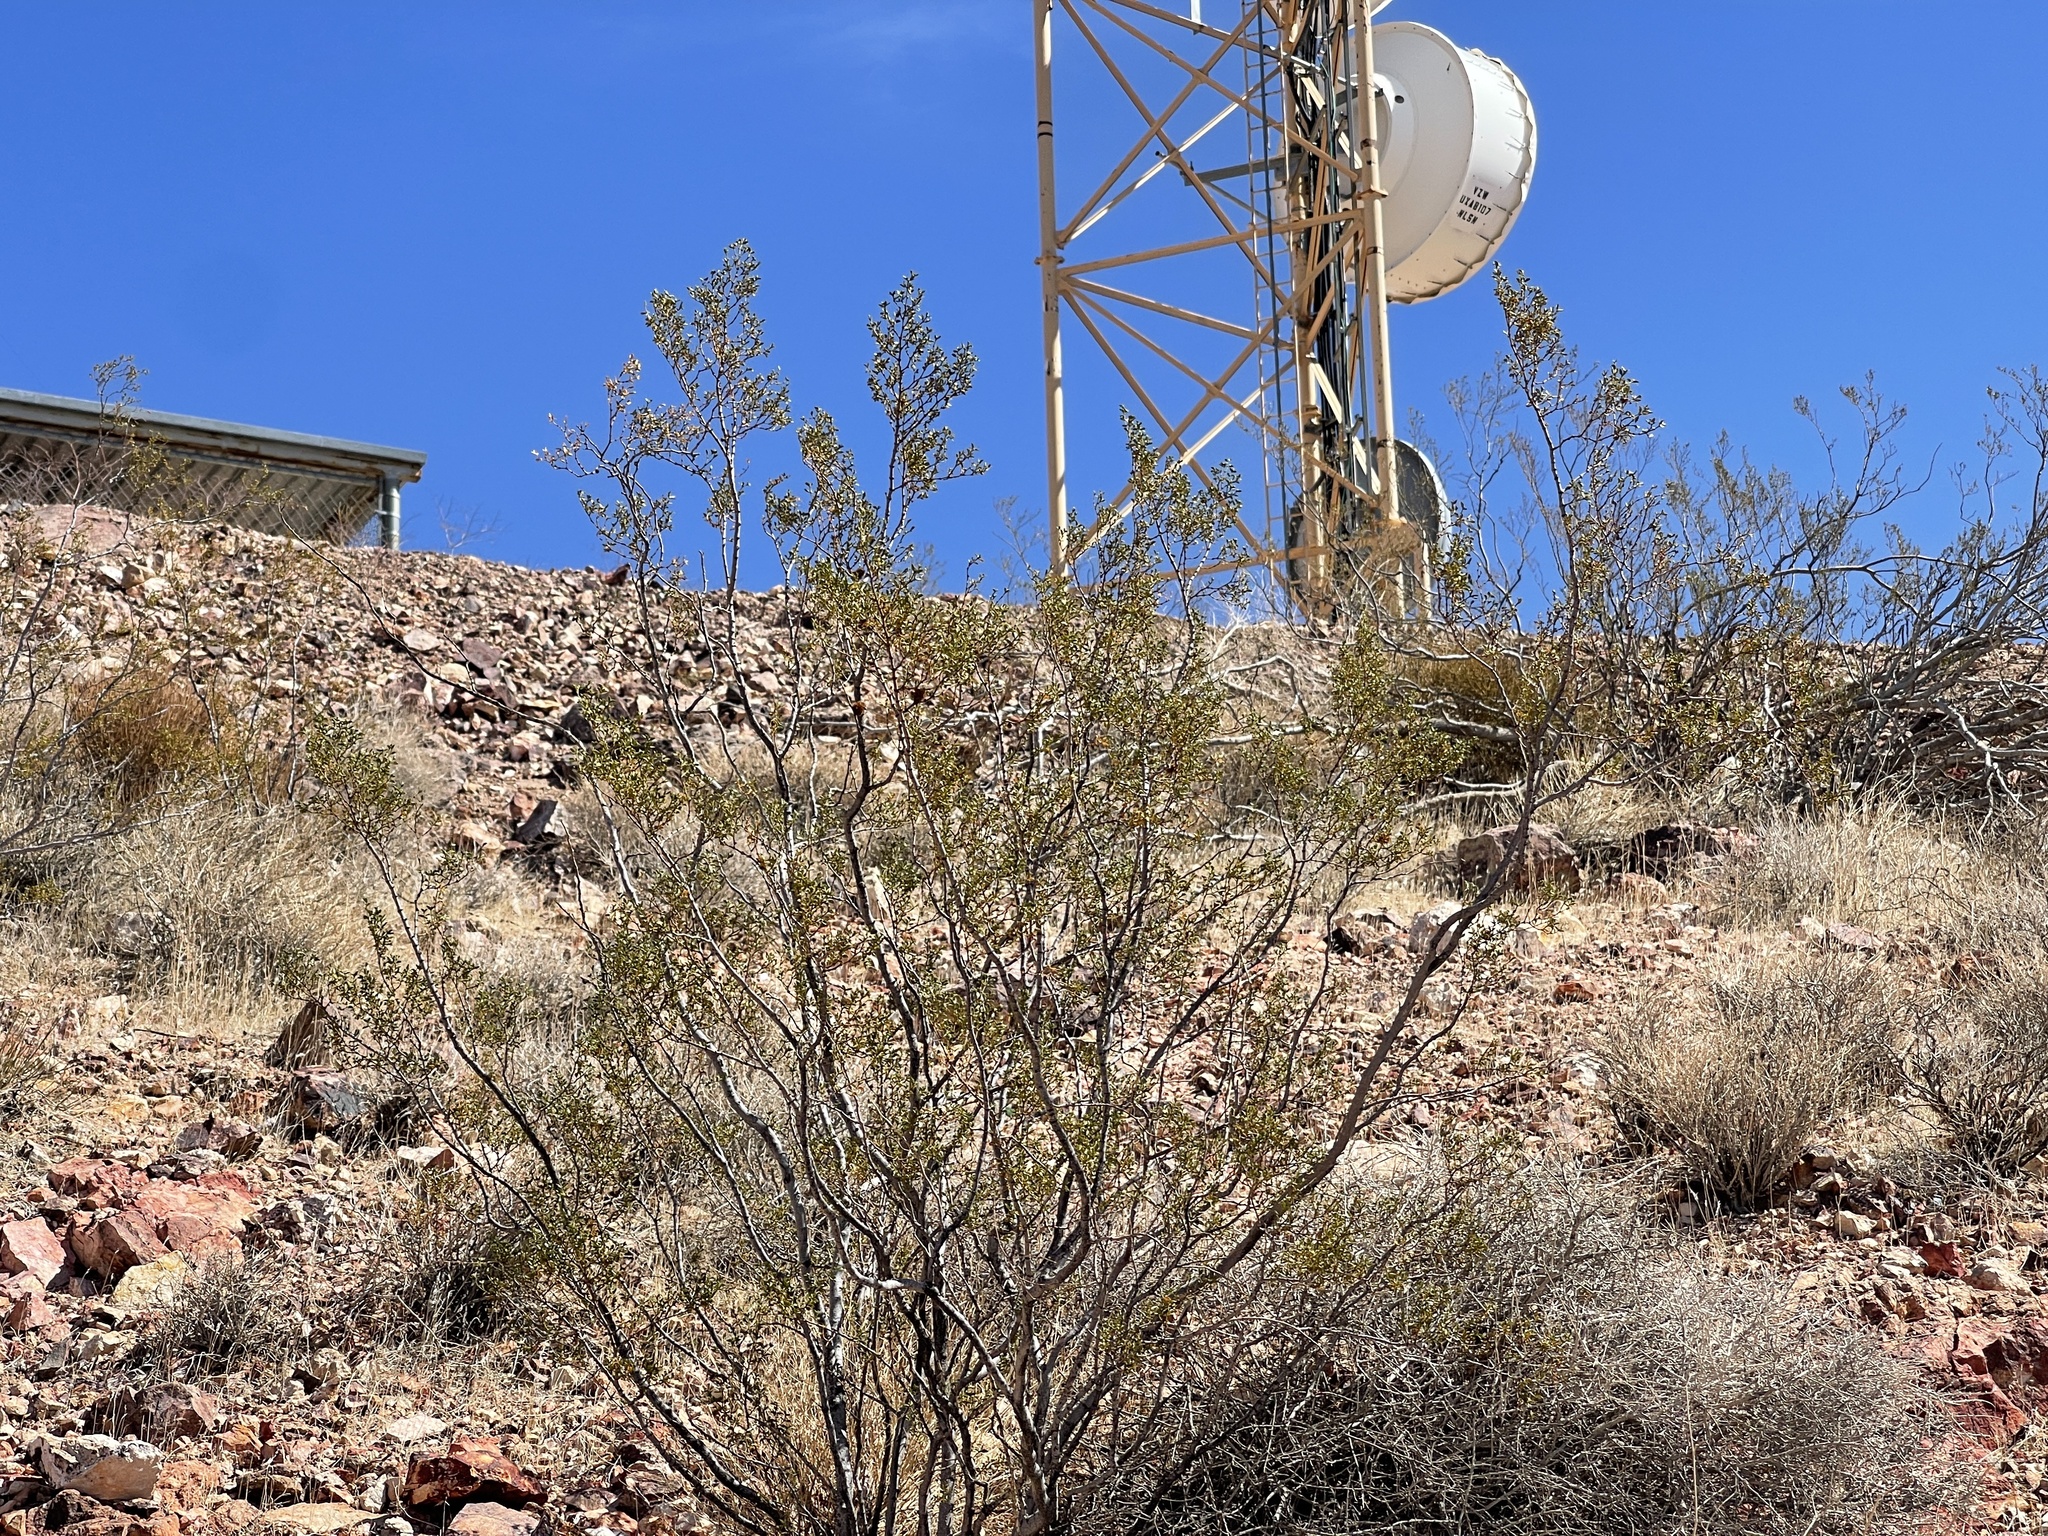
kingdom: Plantae
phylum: Tracheophyta
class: Magnoliopsida
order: Zygophyllales
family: Zygophyllaceae
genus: Larrea
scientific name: Larrea tridentata
